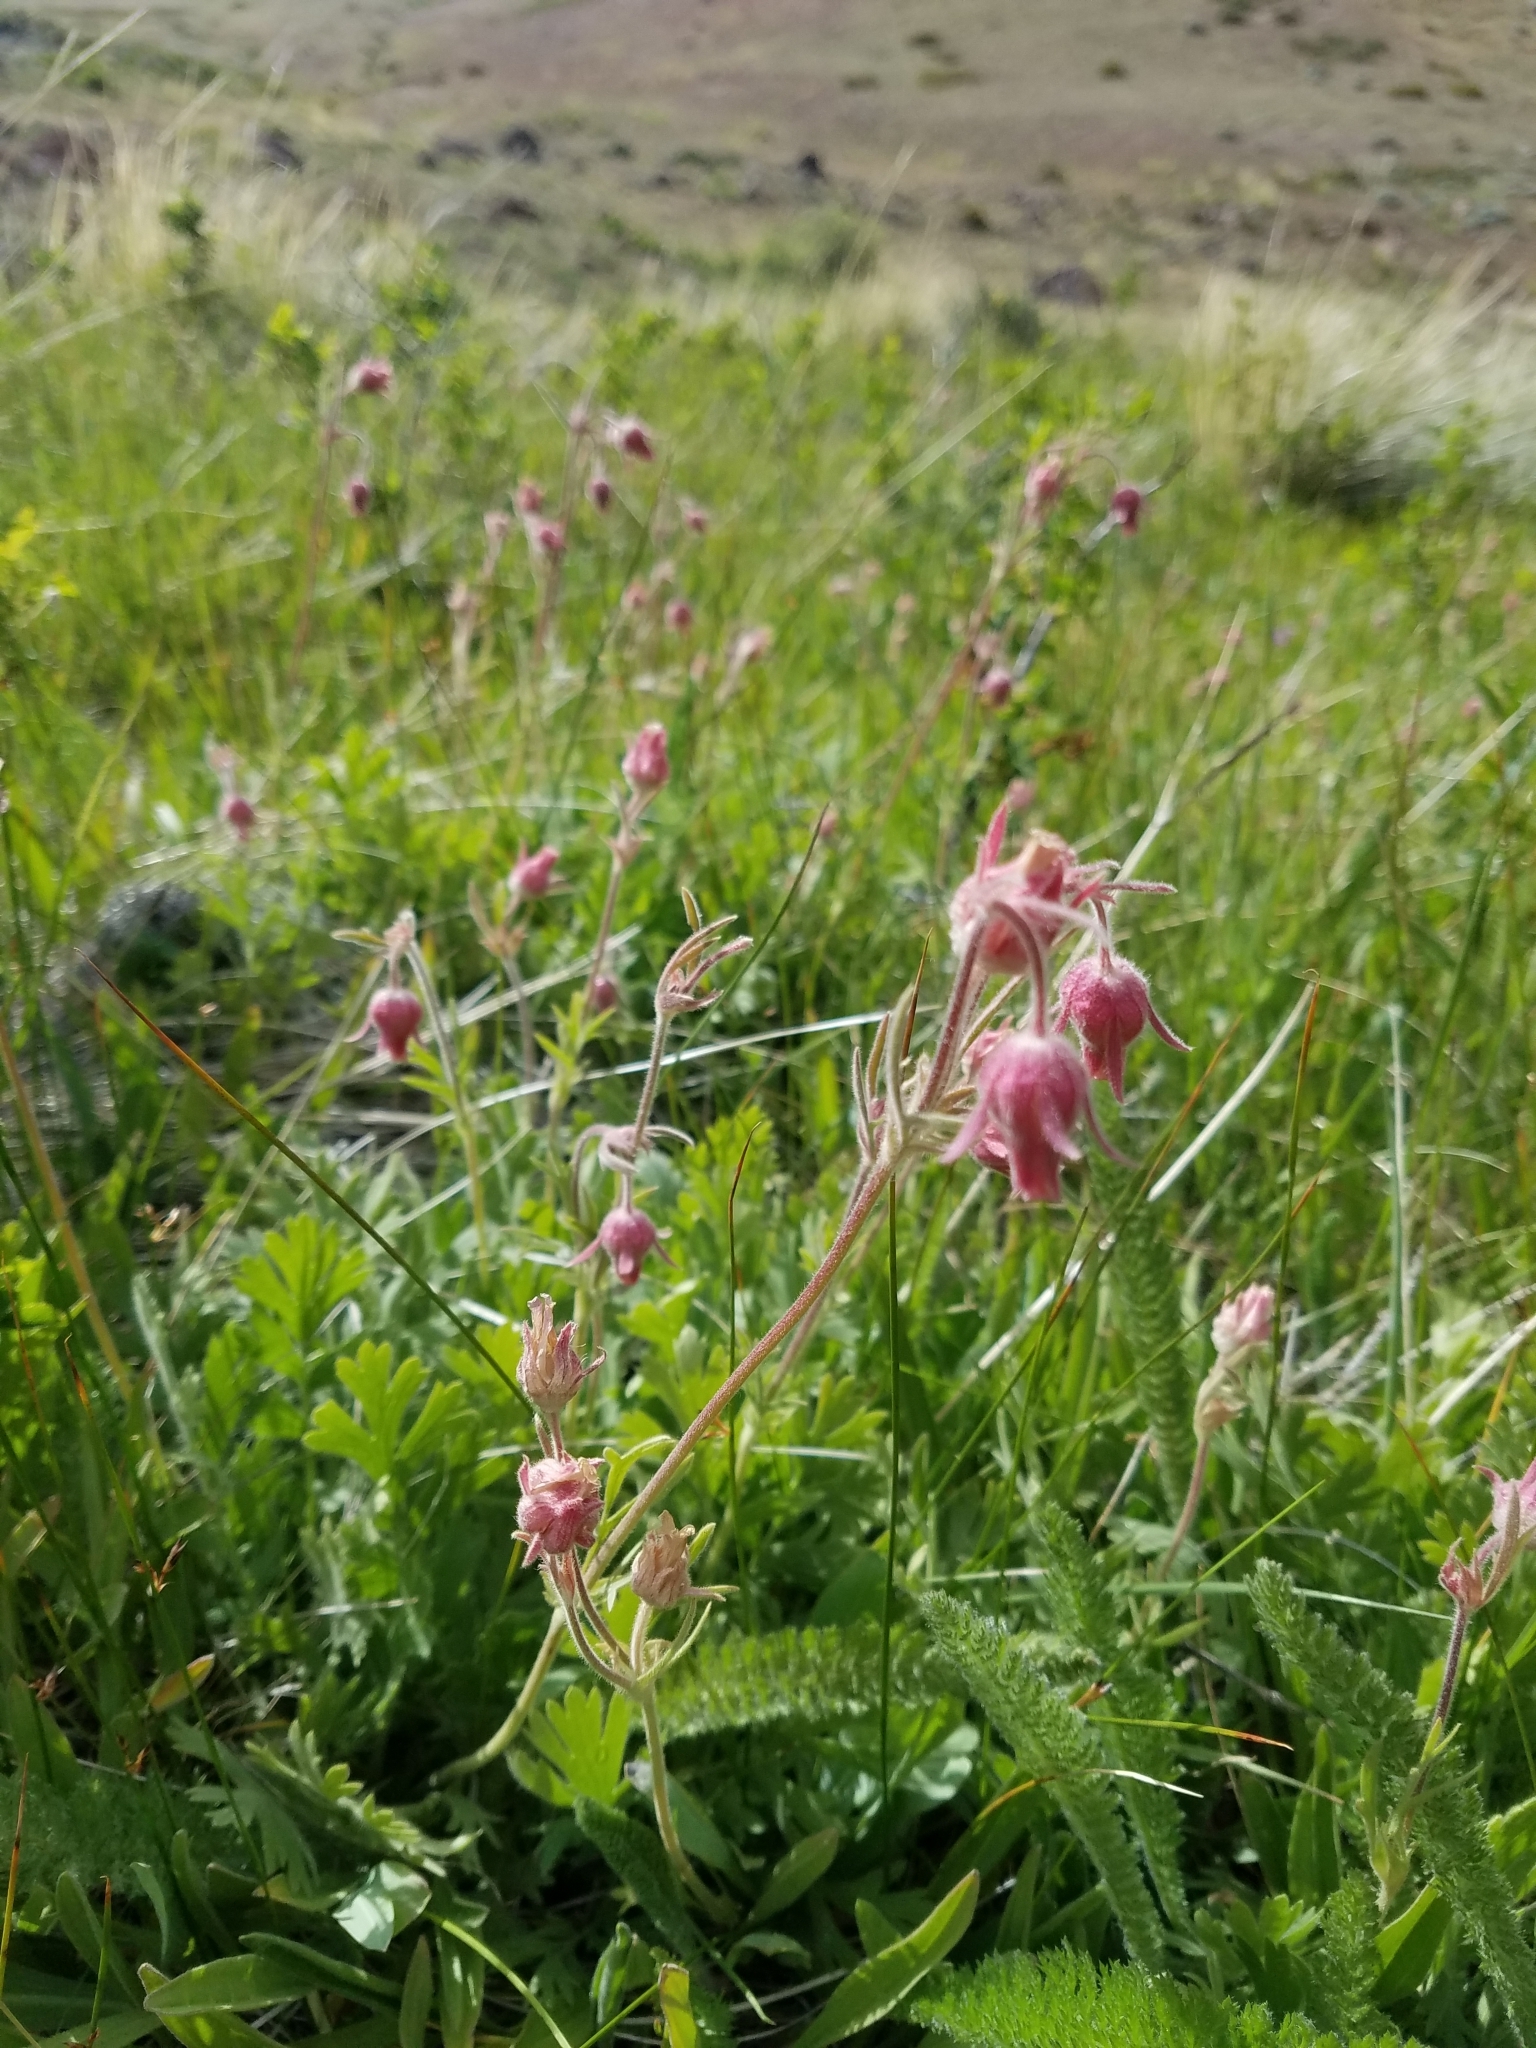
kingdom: Plantae
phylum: Tracheophyta
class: Magnoliopsida
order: Rosales
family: Rosaceae
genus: Geum
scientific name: Geum triflorum
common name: Old man's whiskers
